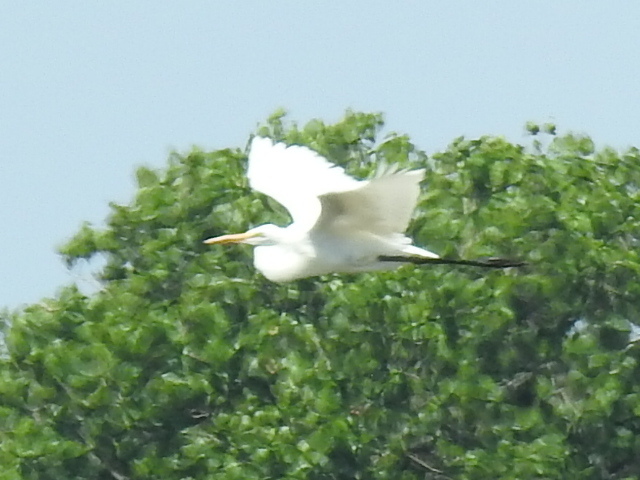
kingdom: Animalia
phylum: Chordata
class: Aves
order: Pelecaniformes
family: Ardeidae
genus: Ardea
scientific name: Ardea alba
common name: Great egret
